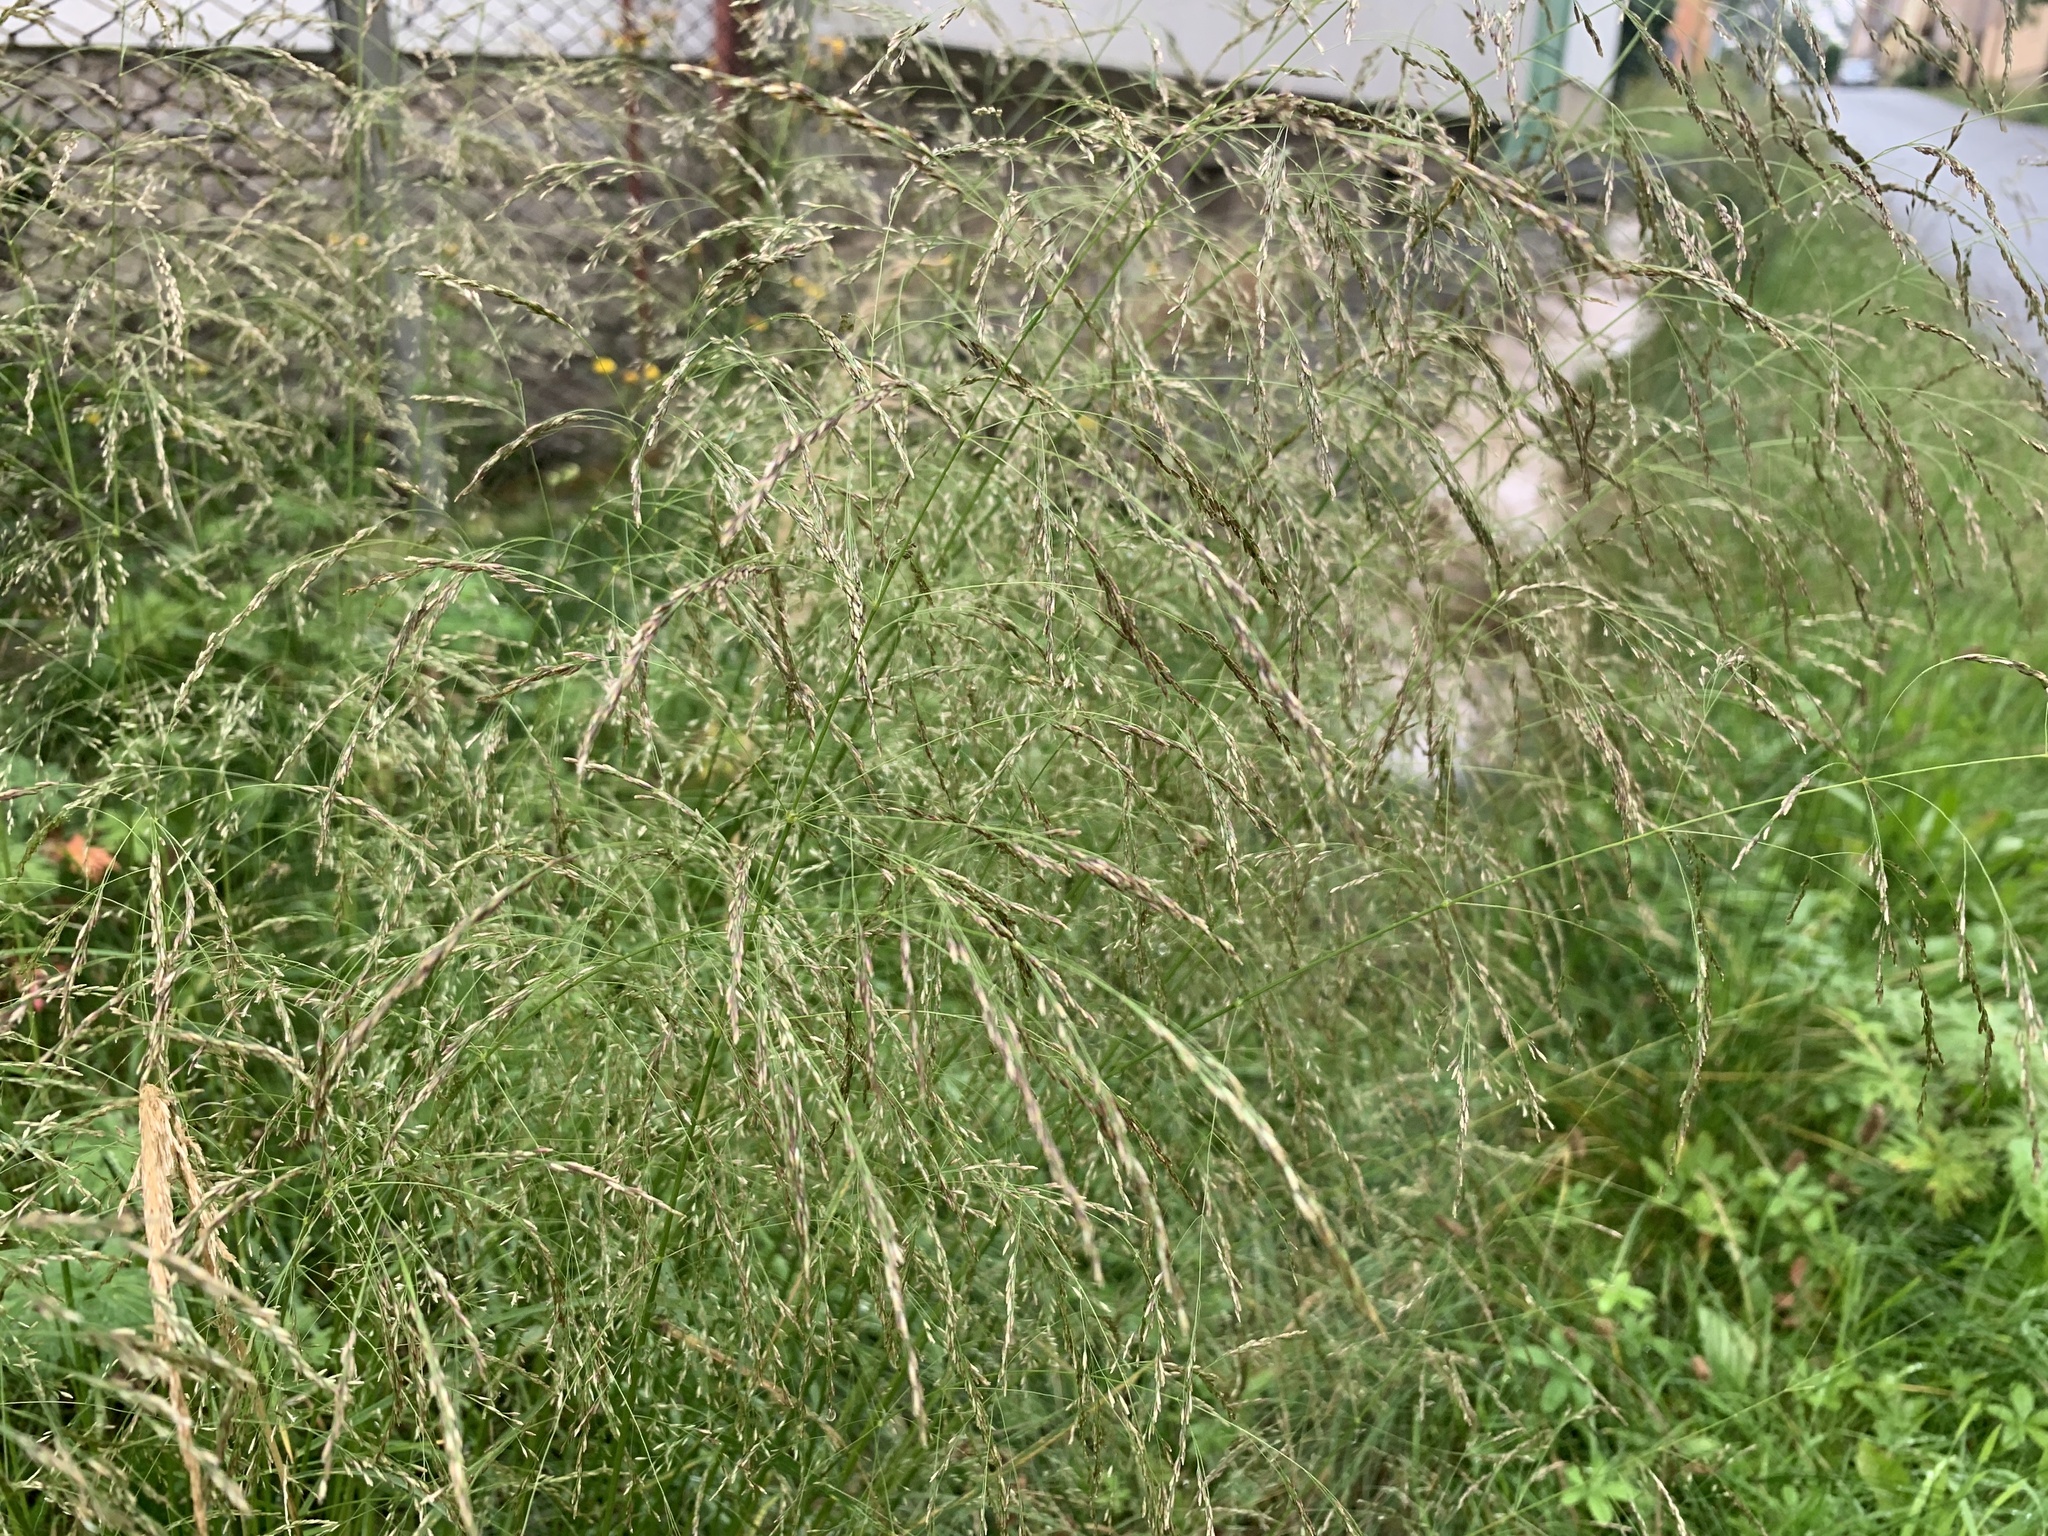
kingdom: Plantae
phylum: Tracheophyta
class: Liliopsida
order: Poales
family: Poaceae
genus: Deschampsia
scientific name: Deschampsia cespitosa
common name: Tufted hair-grass
